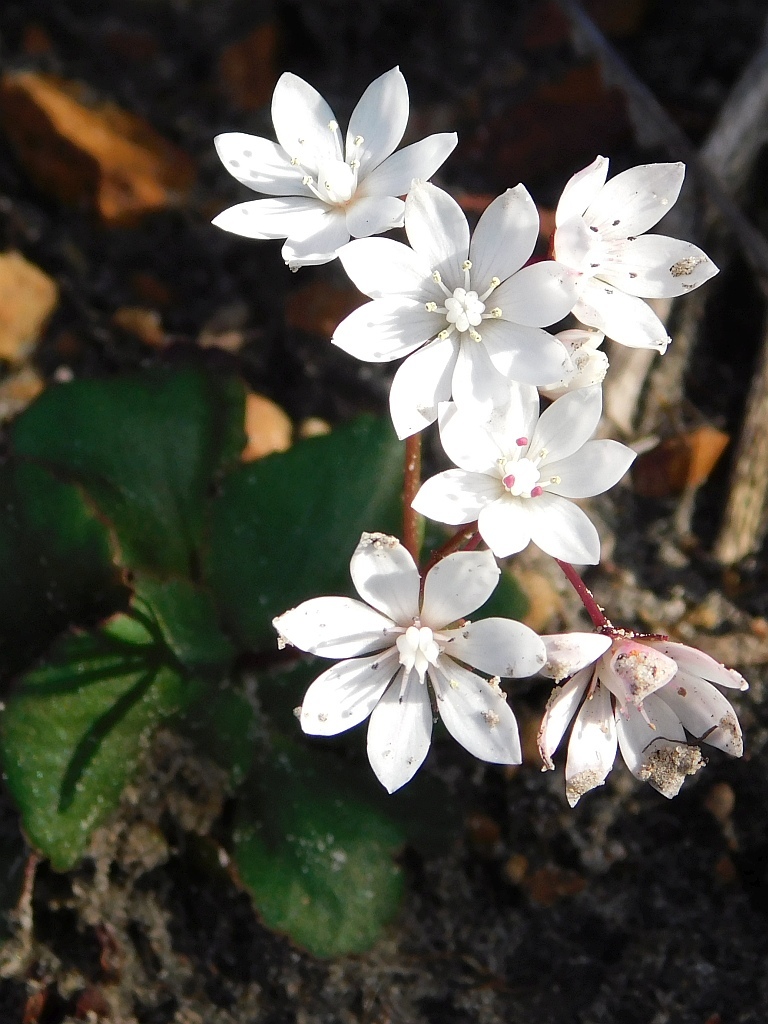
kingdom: Plantae
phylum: Tracheophyta
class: Magnoliopsida
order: Saxifragales
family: Crassulaceae
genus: Crassula
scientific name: Crassula capensis
